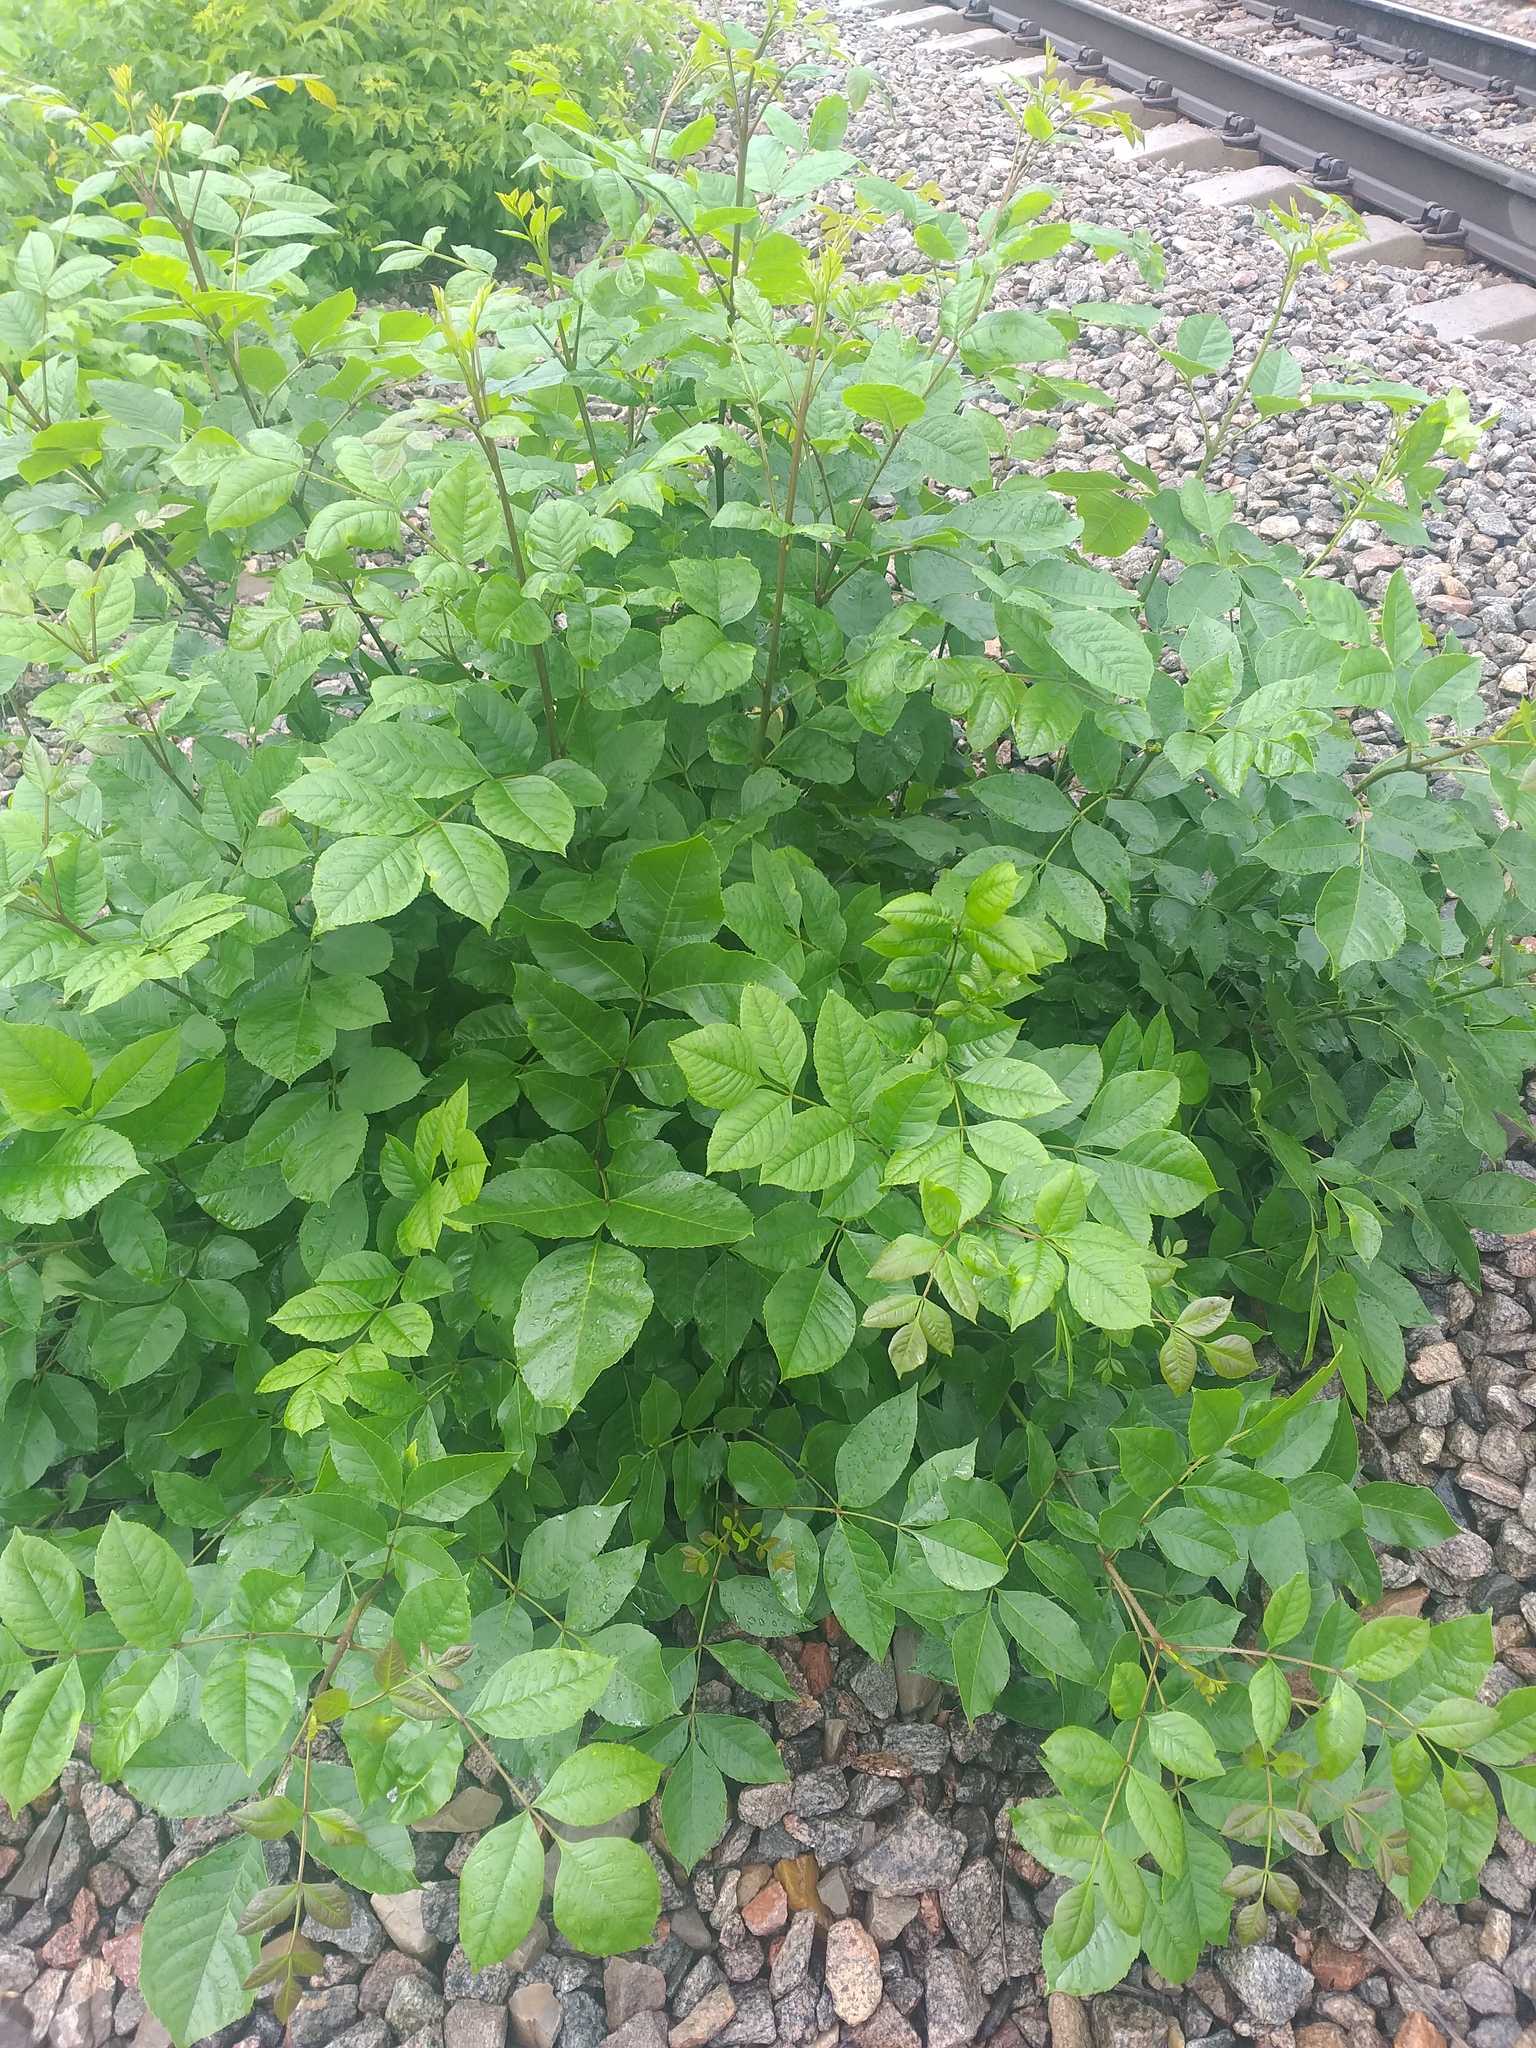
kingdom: Plantae
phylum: Tracheophyta
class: Magnoliopsida
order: Lamiales
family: Oleaceae
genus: Fraxinus
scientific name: Fraxinus pennsylvanica
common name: Green ash
